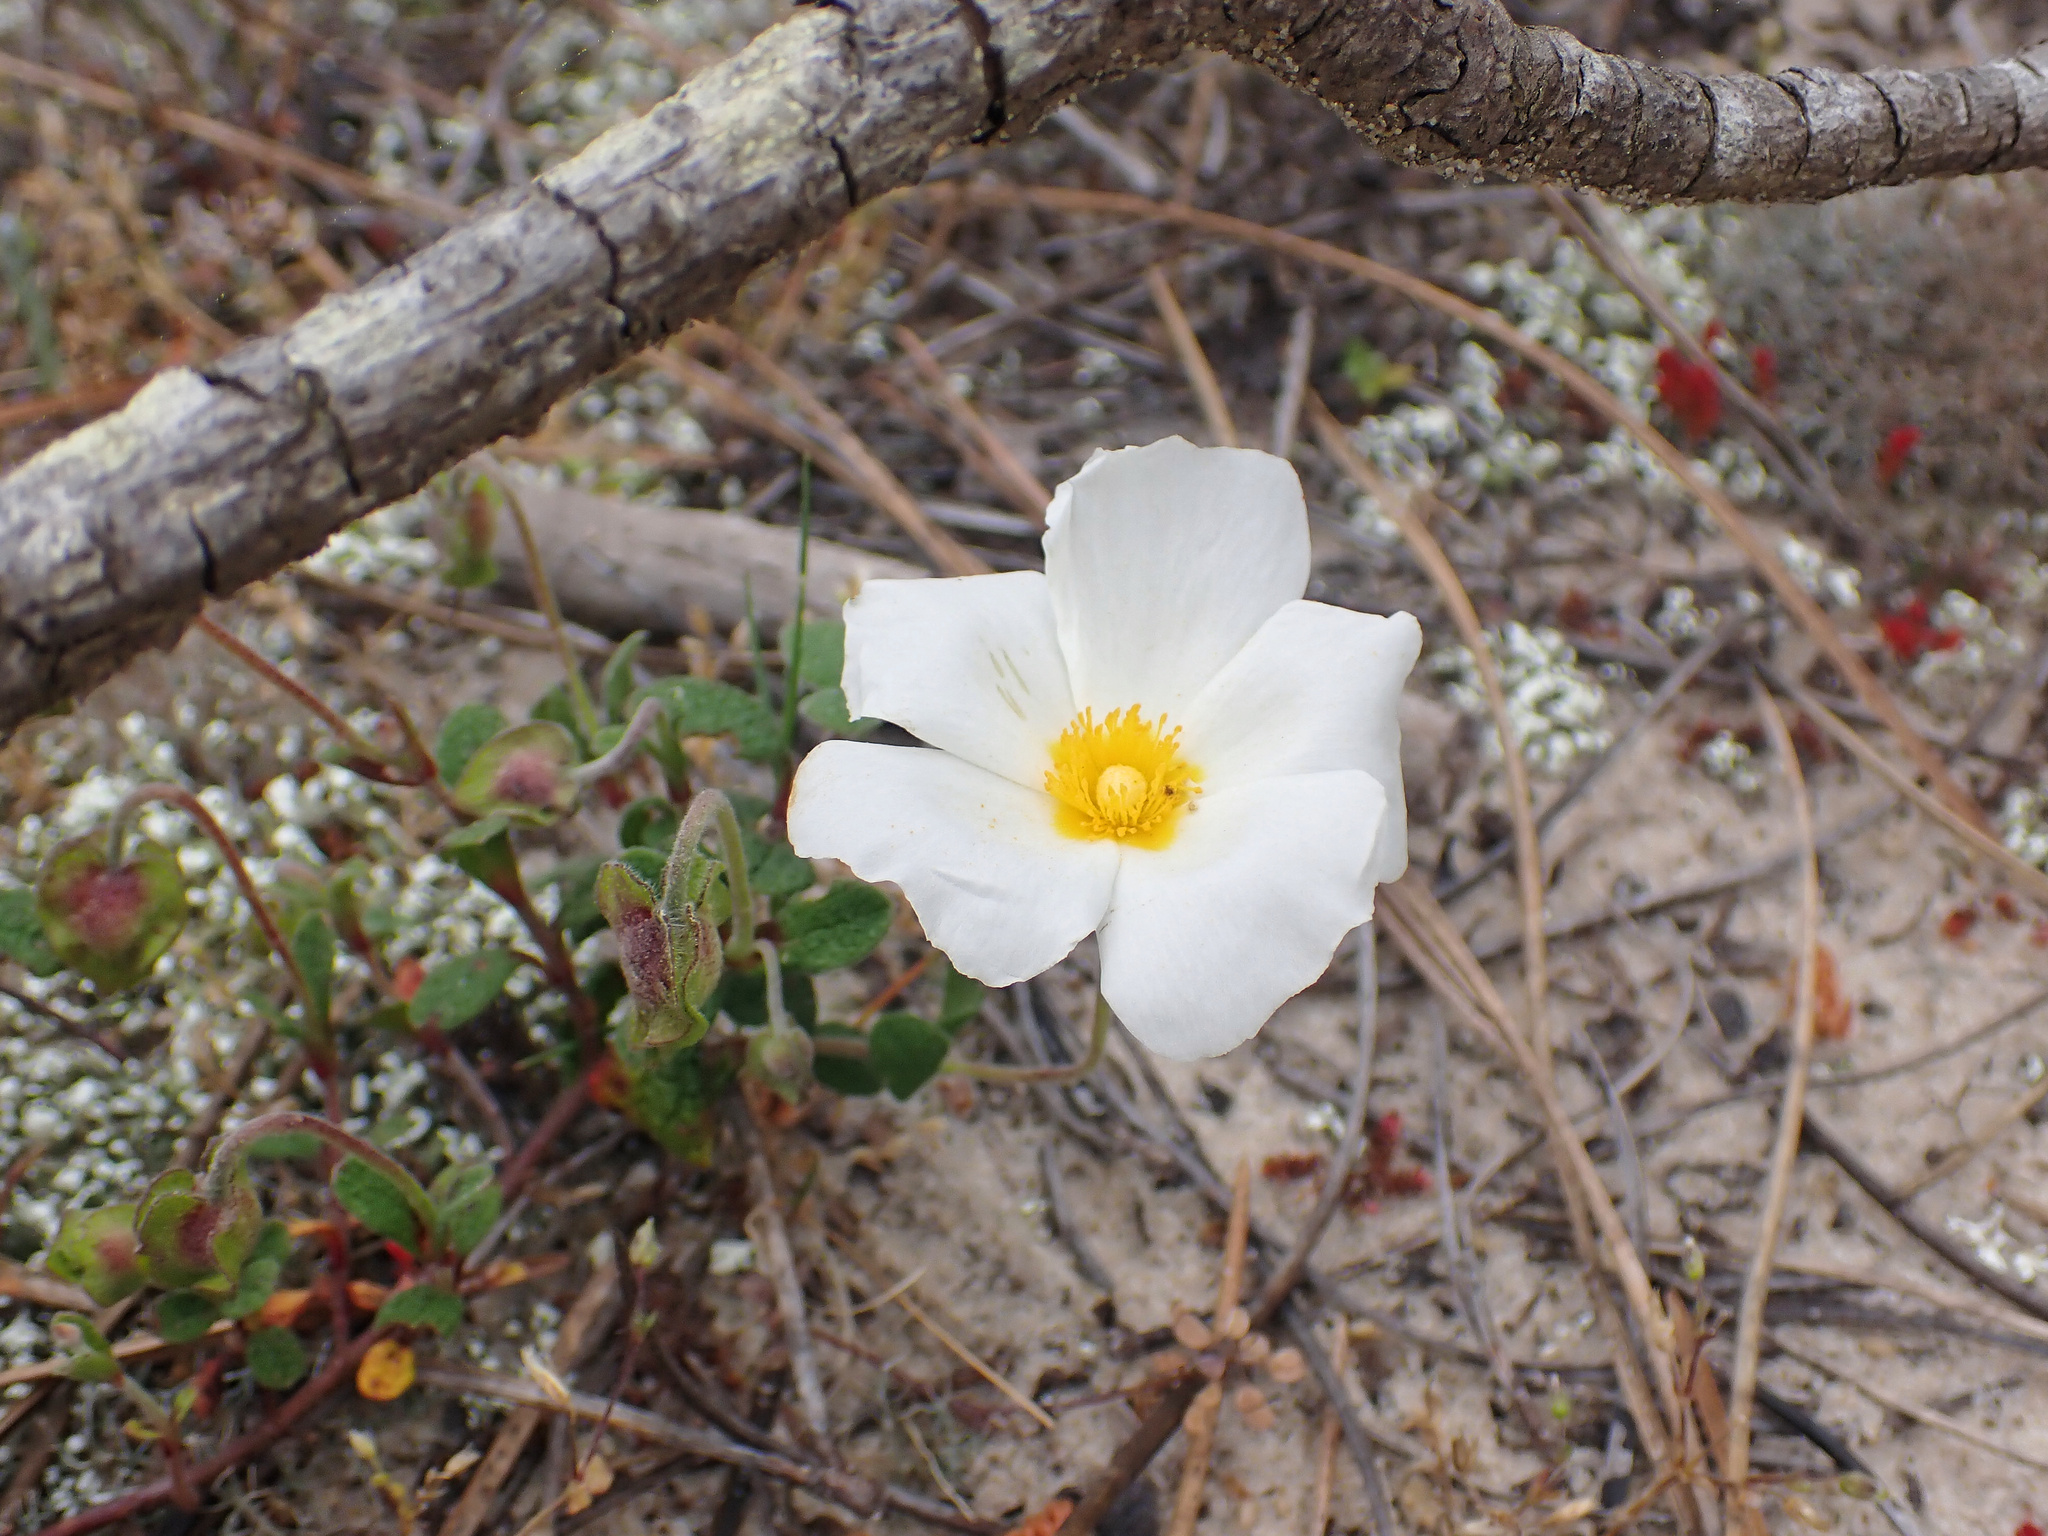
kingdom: Plantae
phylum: Tracheophyta
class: Magnoliopsida
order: Malvales
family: Cistaceae
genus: Cistus
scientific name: Cistus salviifolius
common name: Salvia cistus
